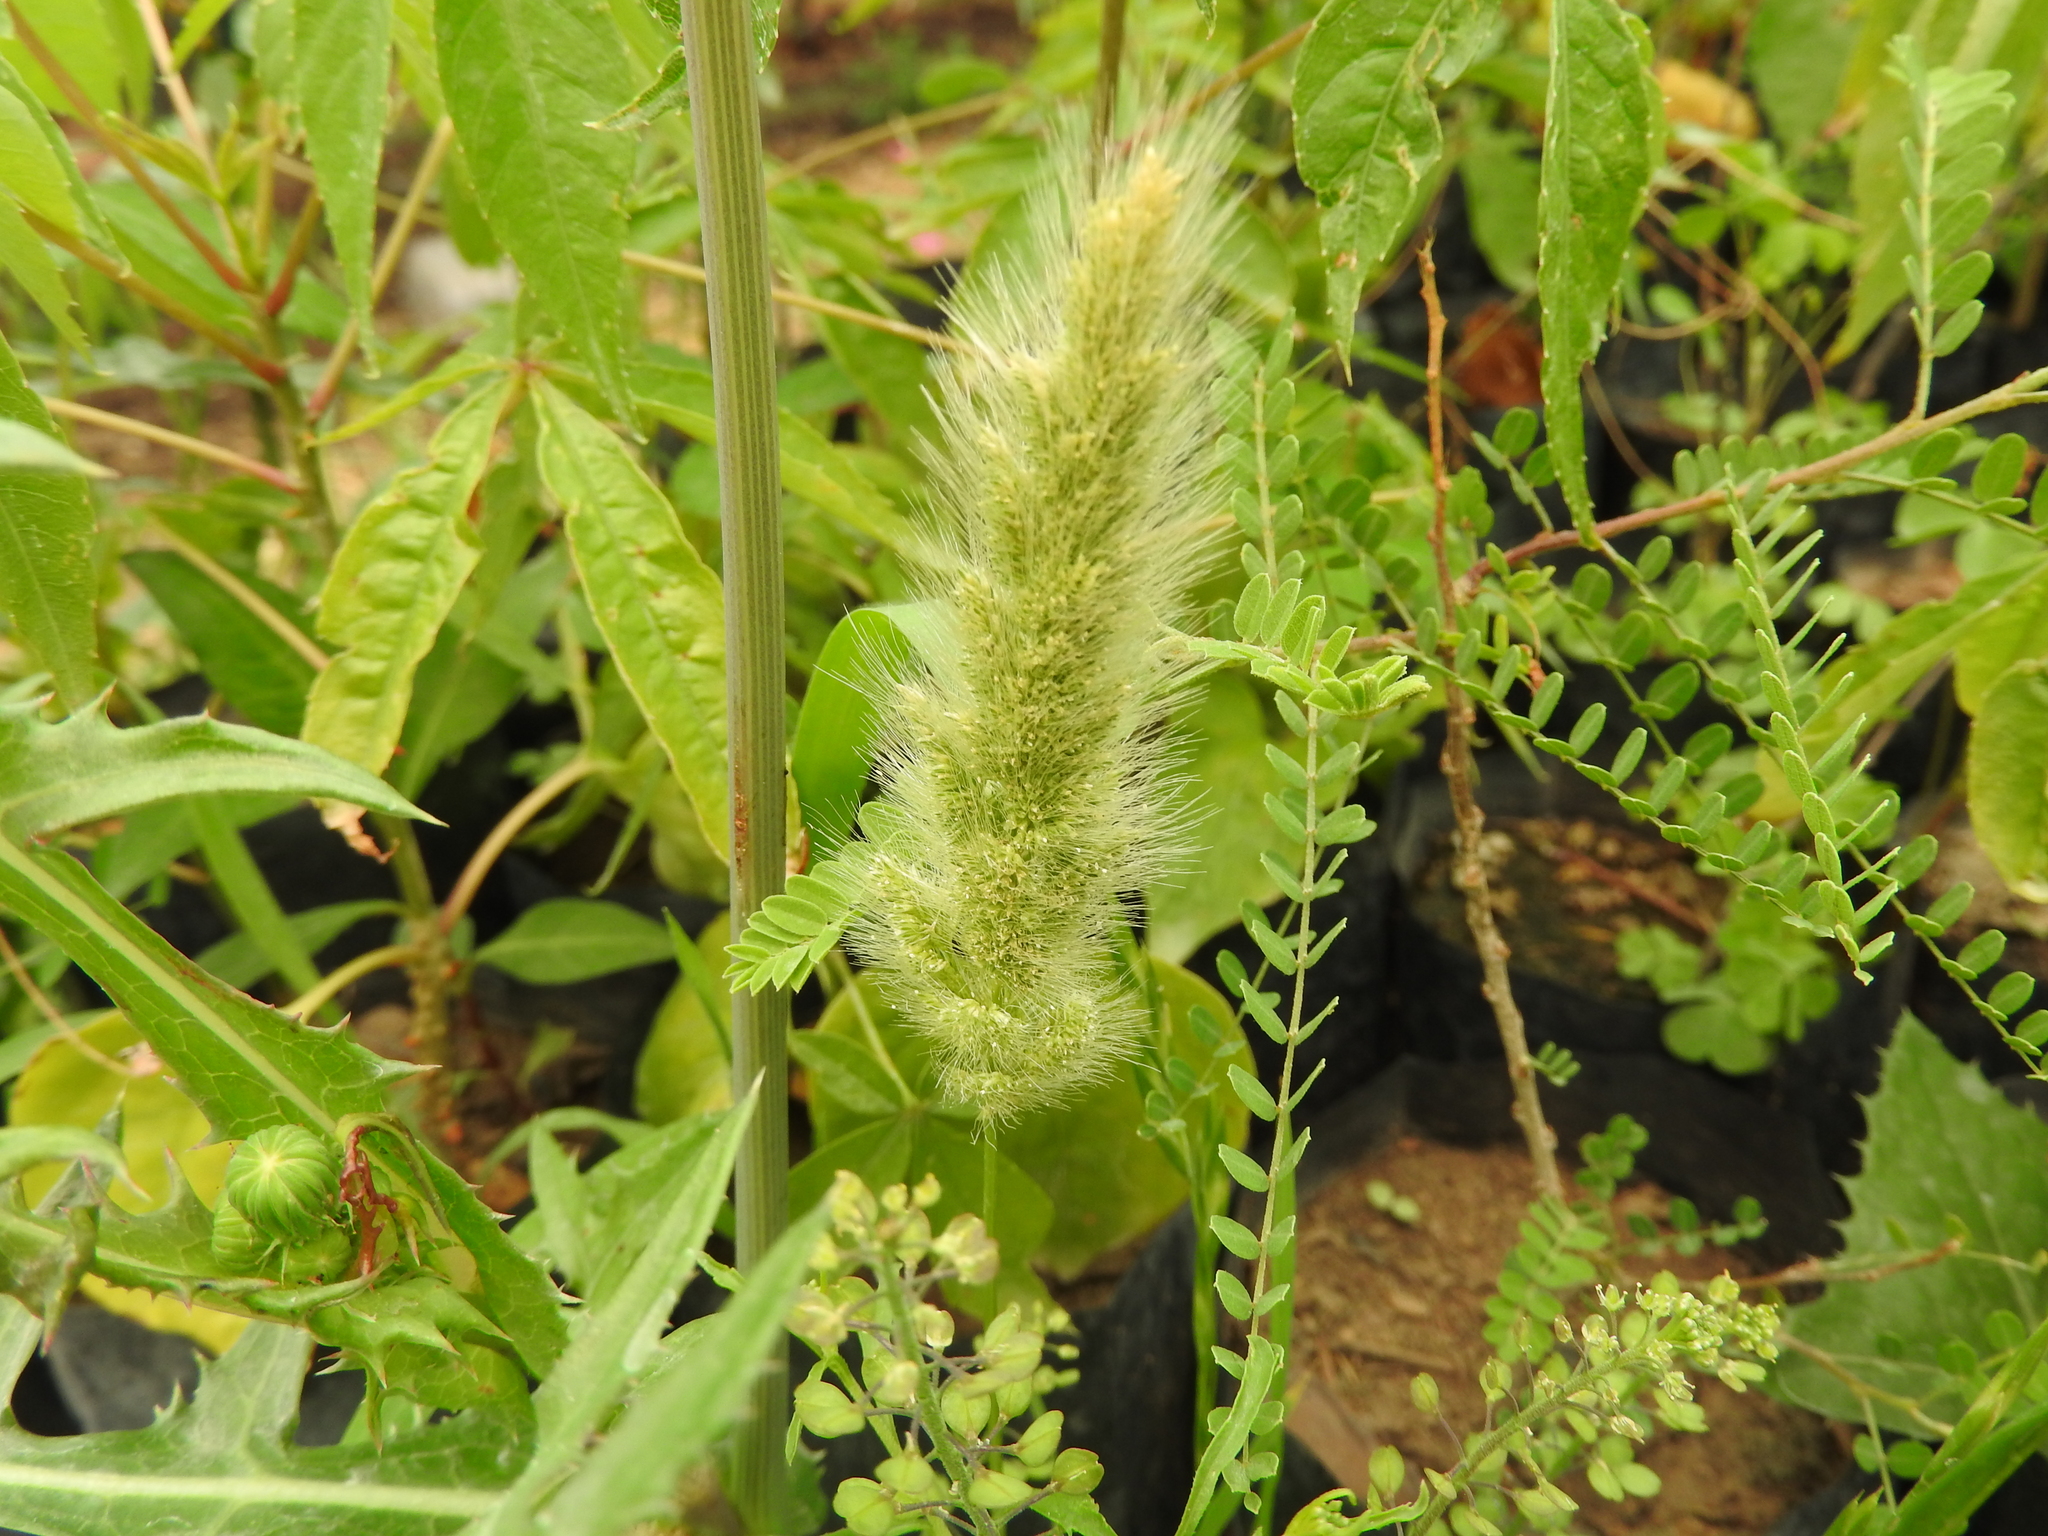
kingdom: Plantae
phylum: Tracheophyta
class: Liliopsida
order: Poales
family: Poaceae
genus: Polypogon
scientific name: Polypogon monspeliensis
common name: Annual rabbitsfoot grass
